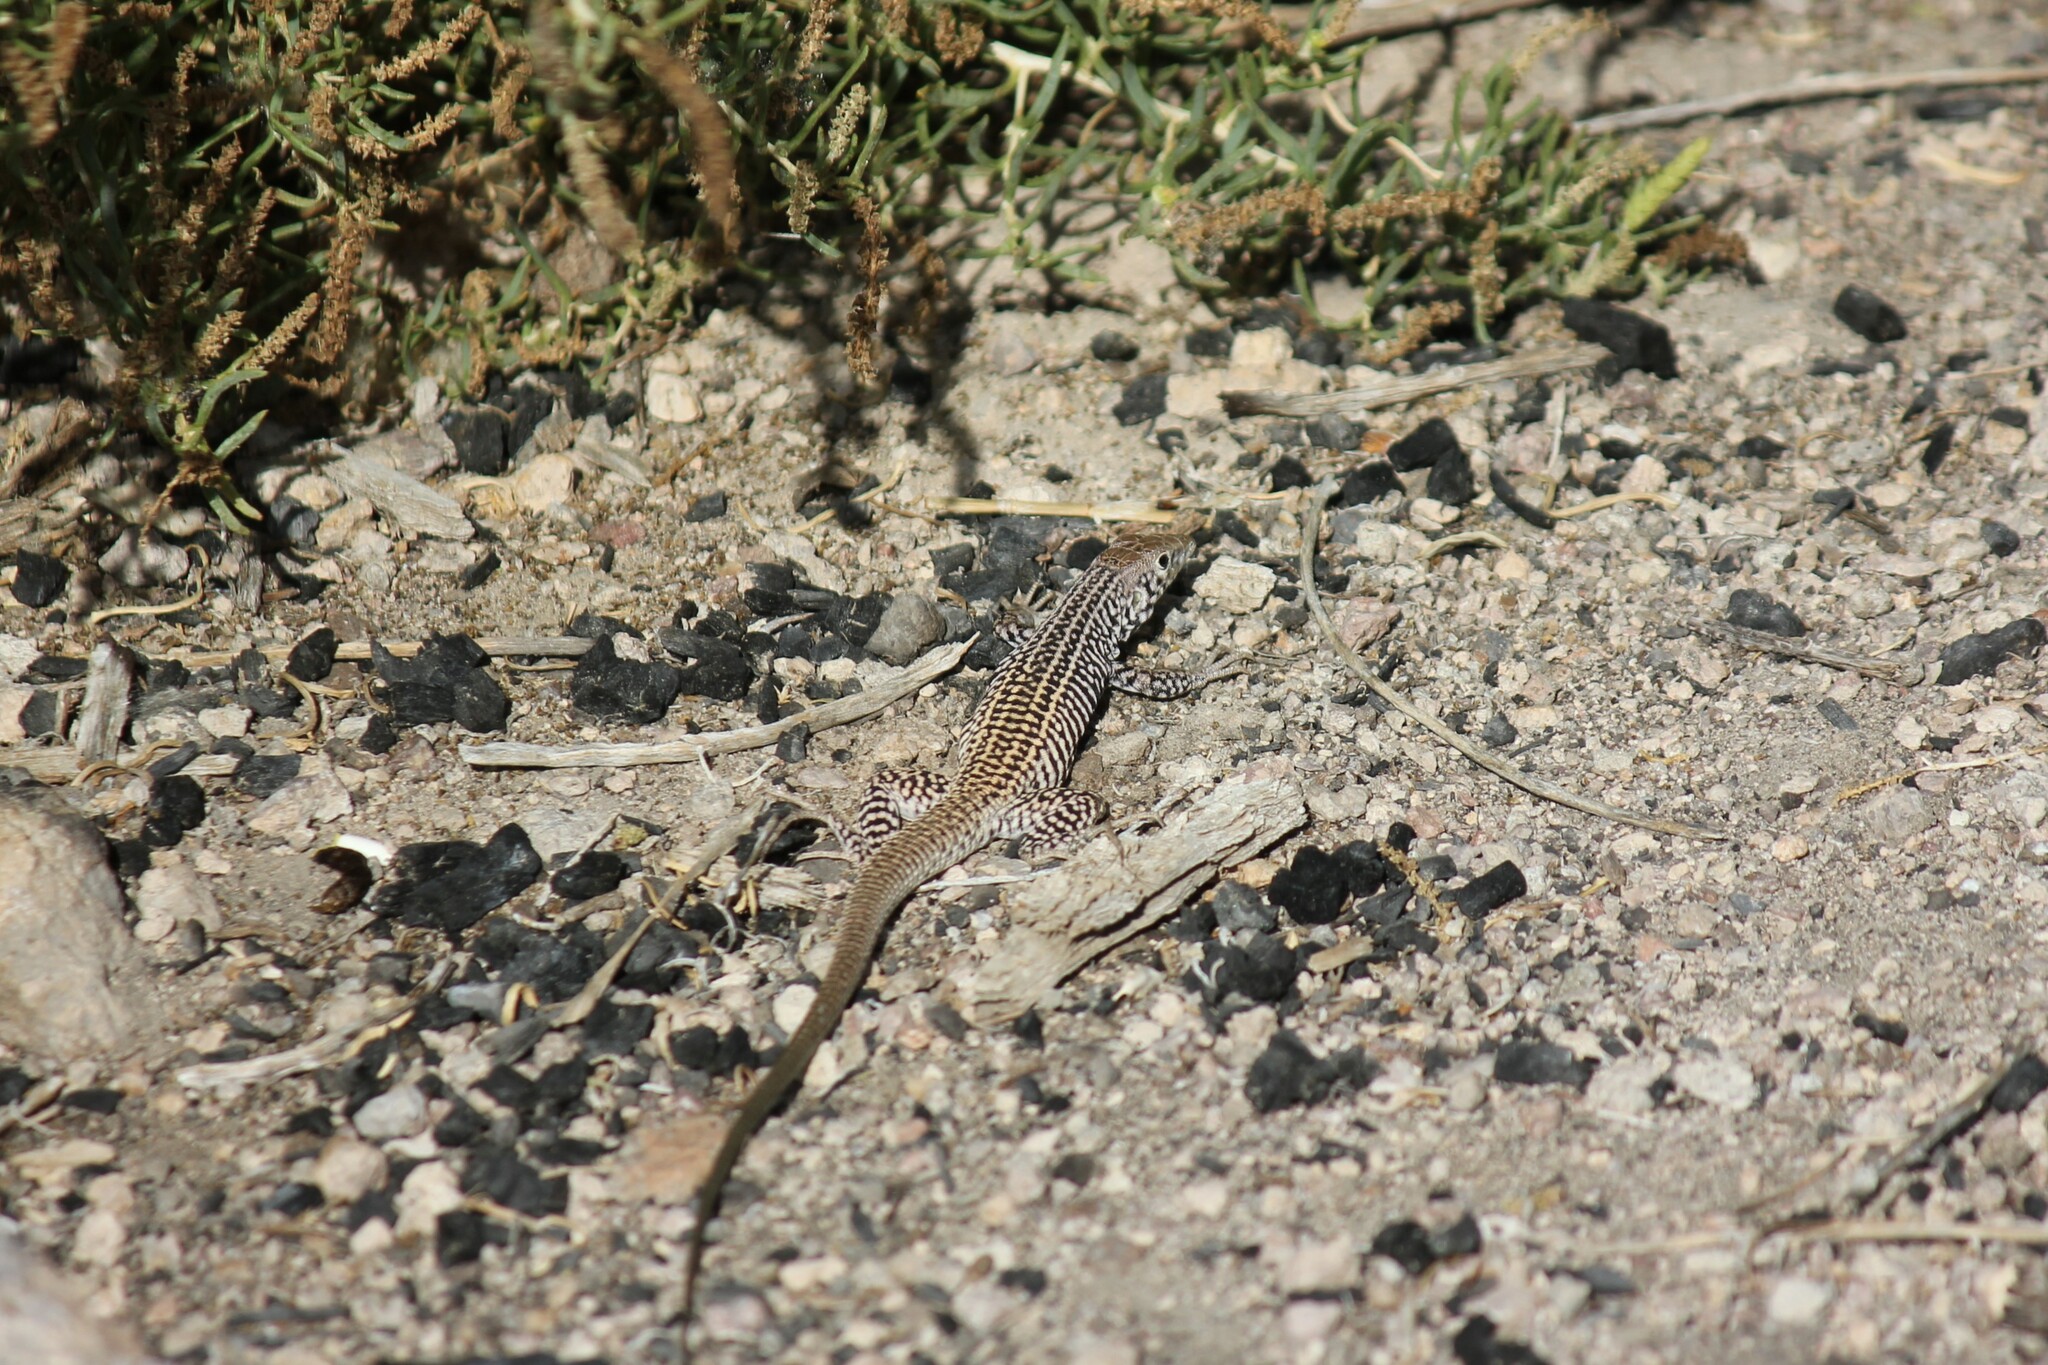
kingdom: Animalia
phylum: Chordata
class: Squamata
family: Teiidae
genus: Aspidoscelis
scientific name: Aspidoscelis tigris
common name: Tiger whiptail
